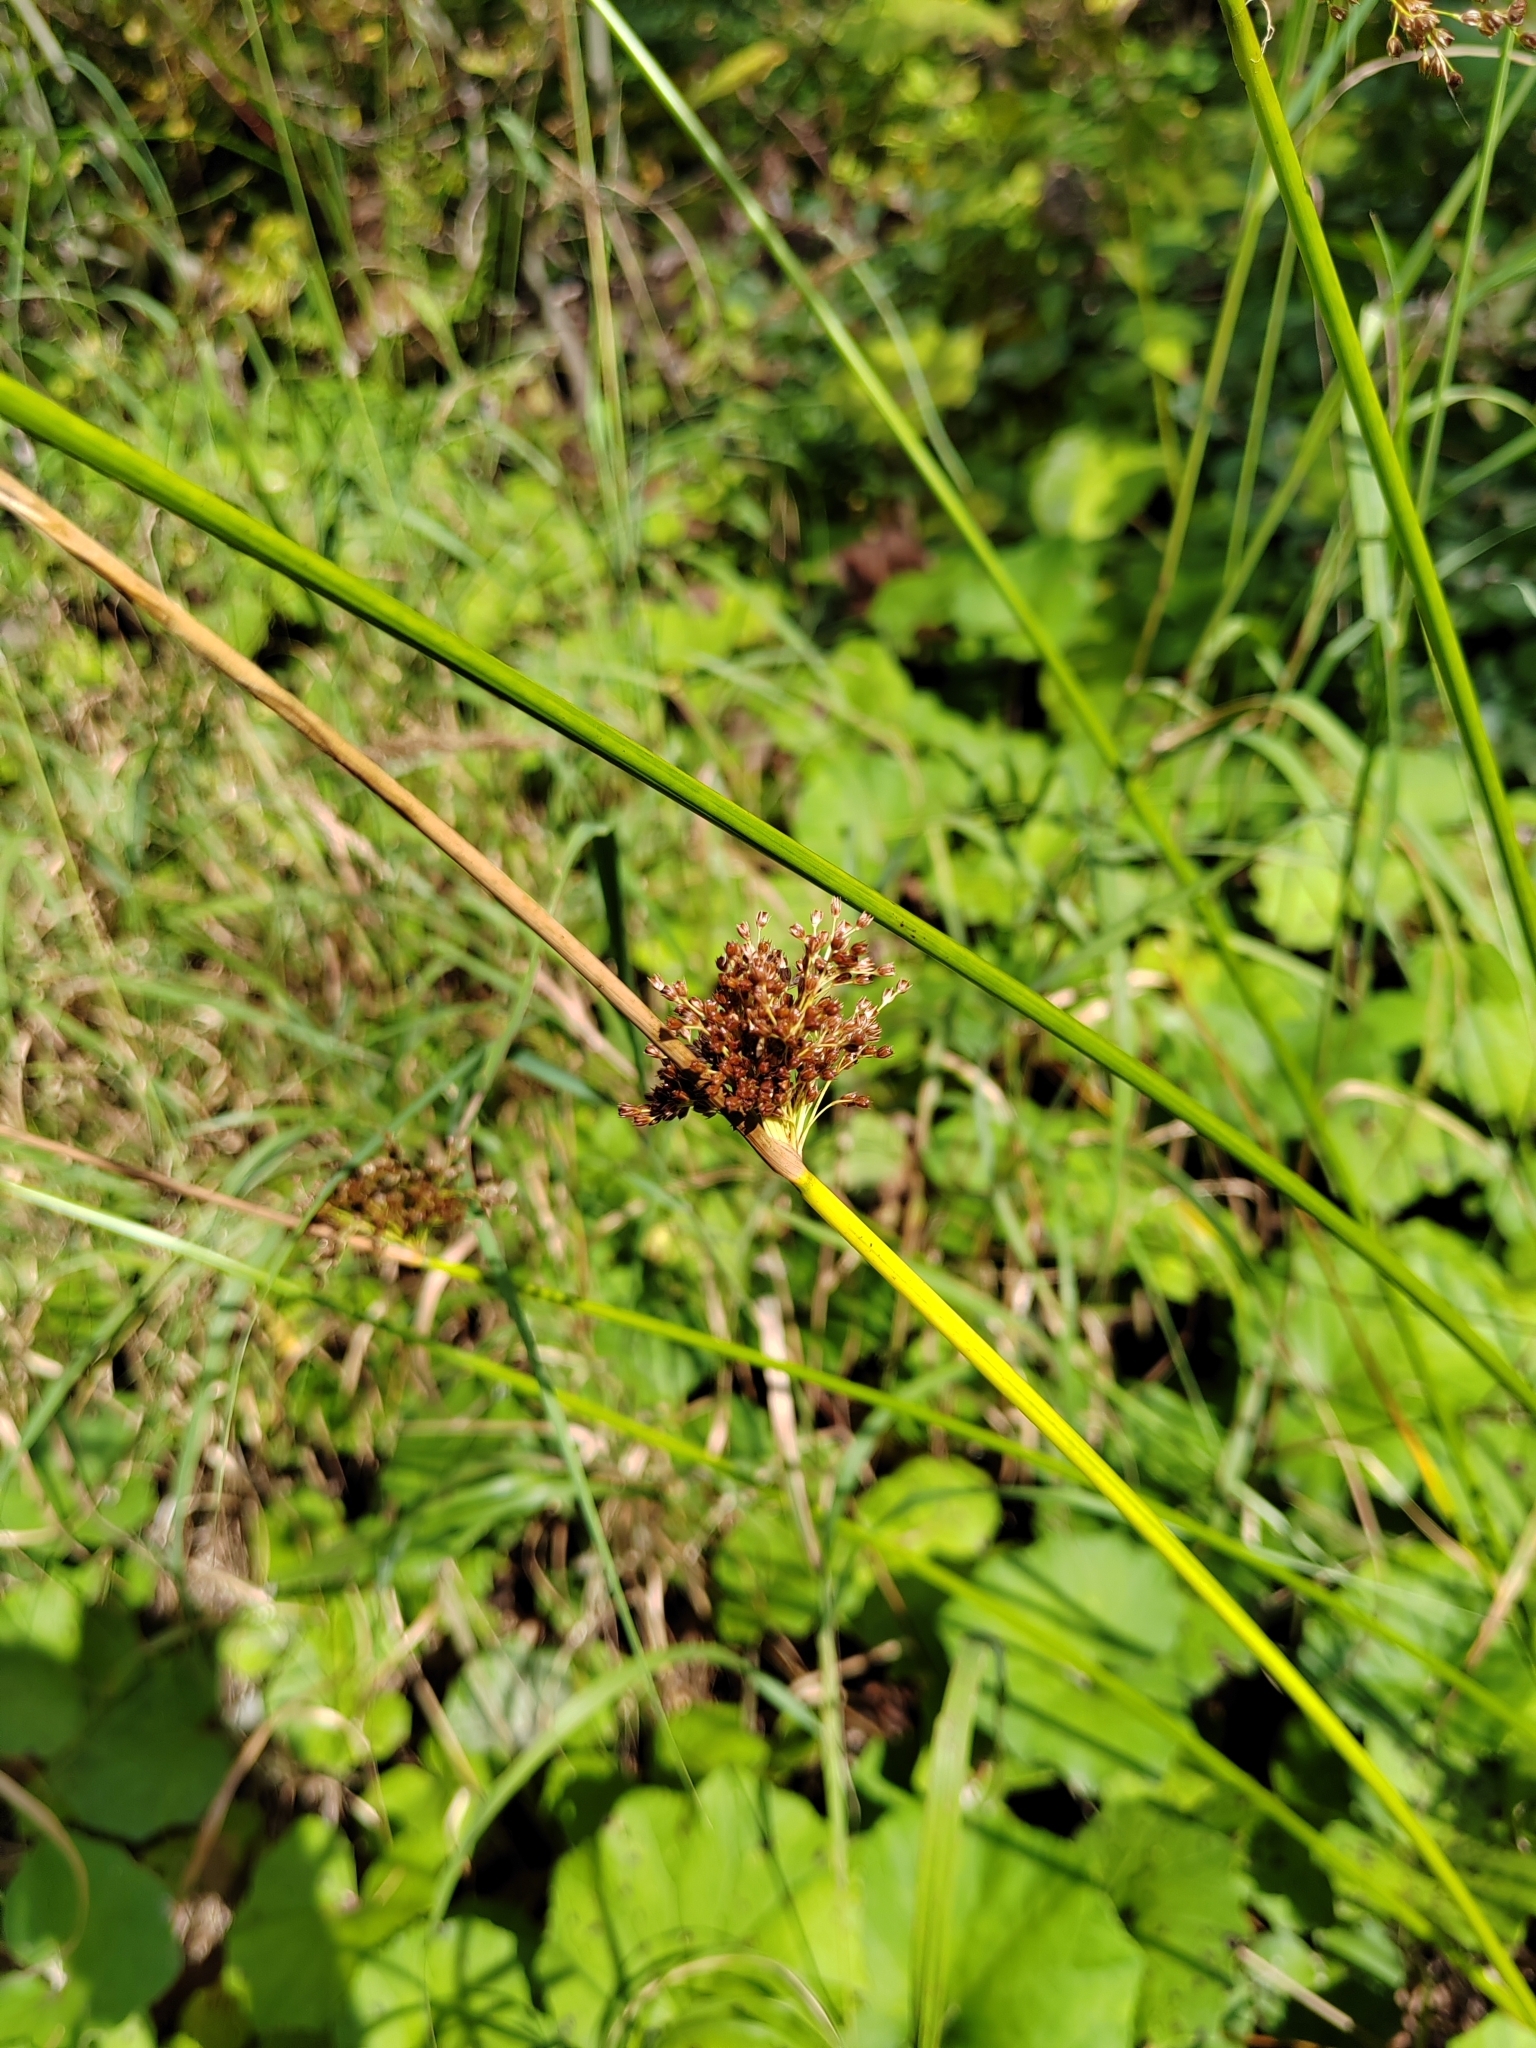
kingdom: Plantae
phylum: Tracheophyta
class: Liliopsida
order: Poales
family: Juncaceae
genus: Juncus
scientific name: Juncus effusus
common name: Soft rush
